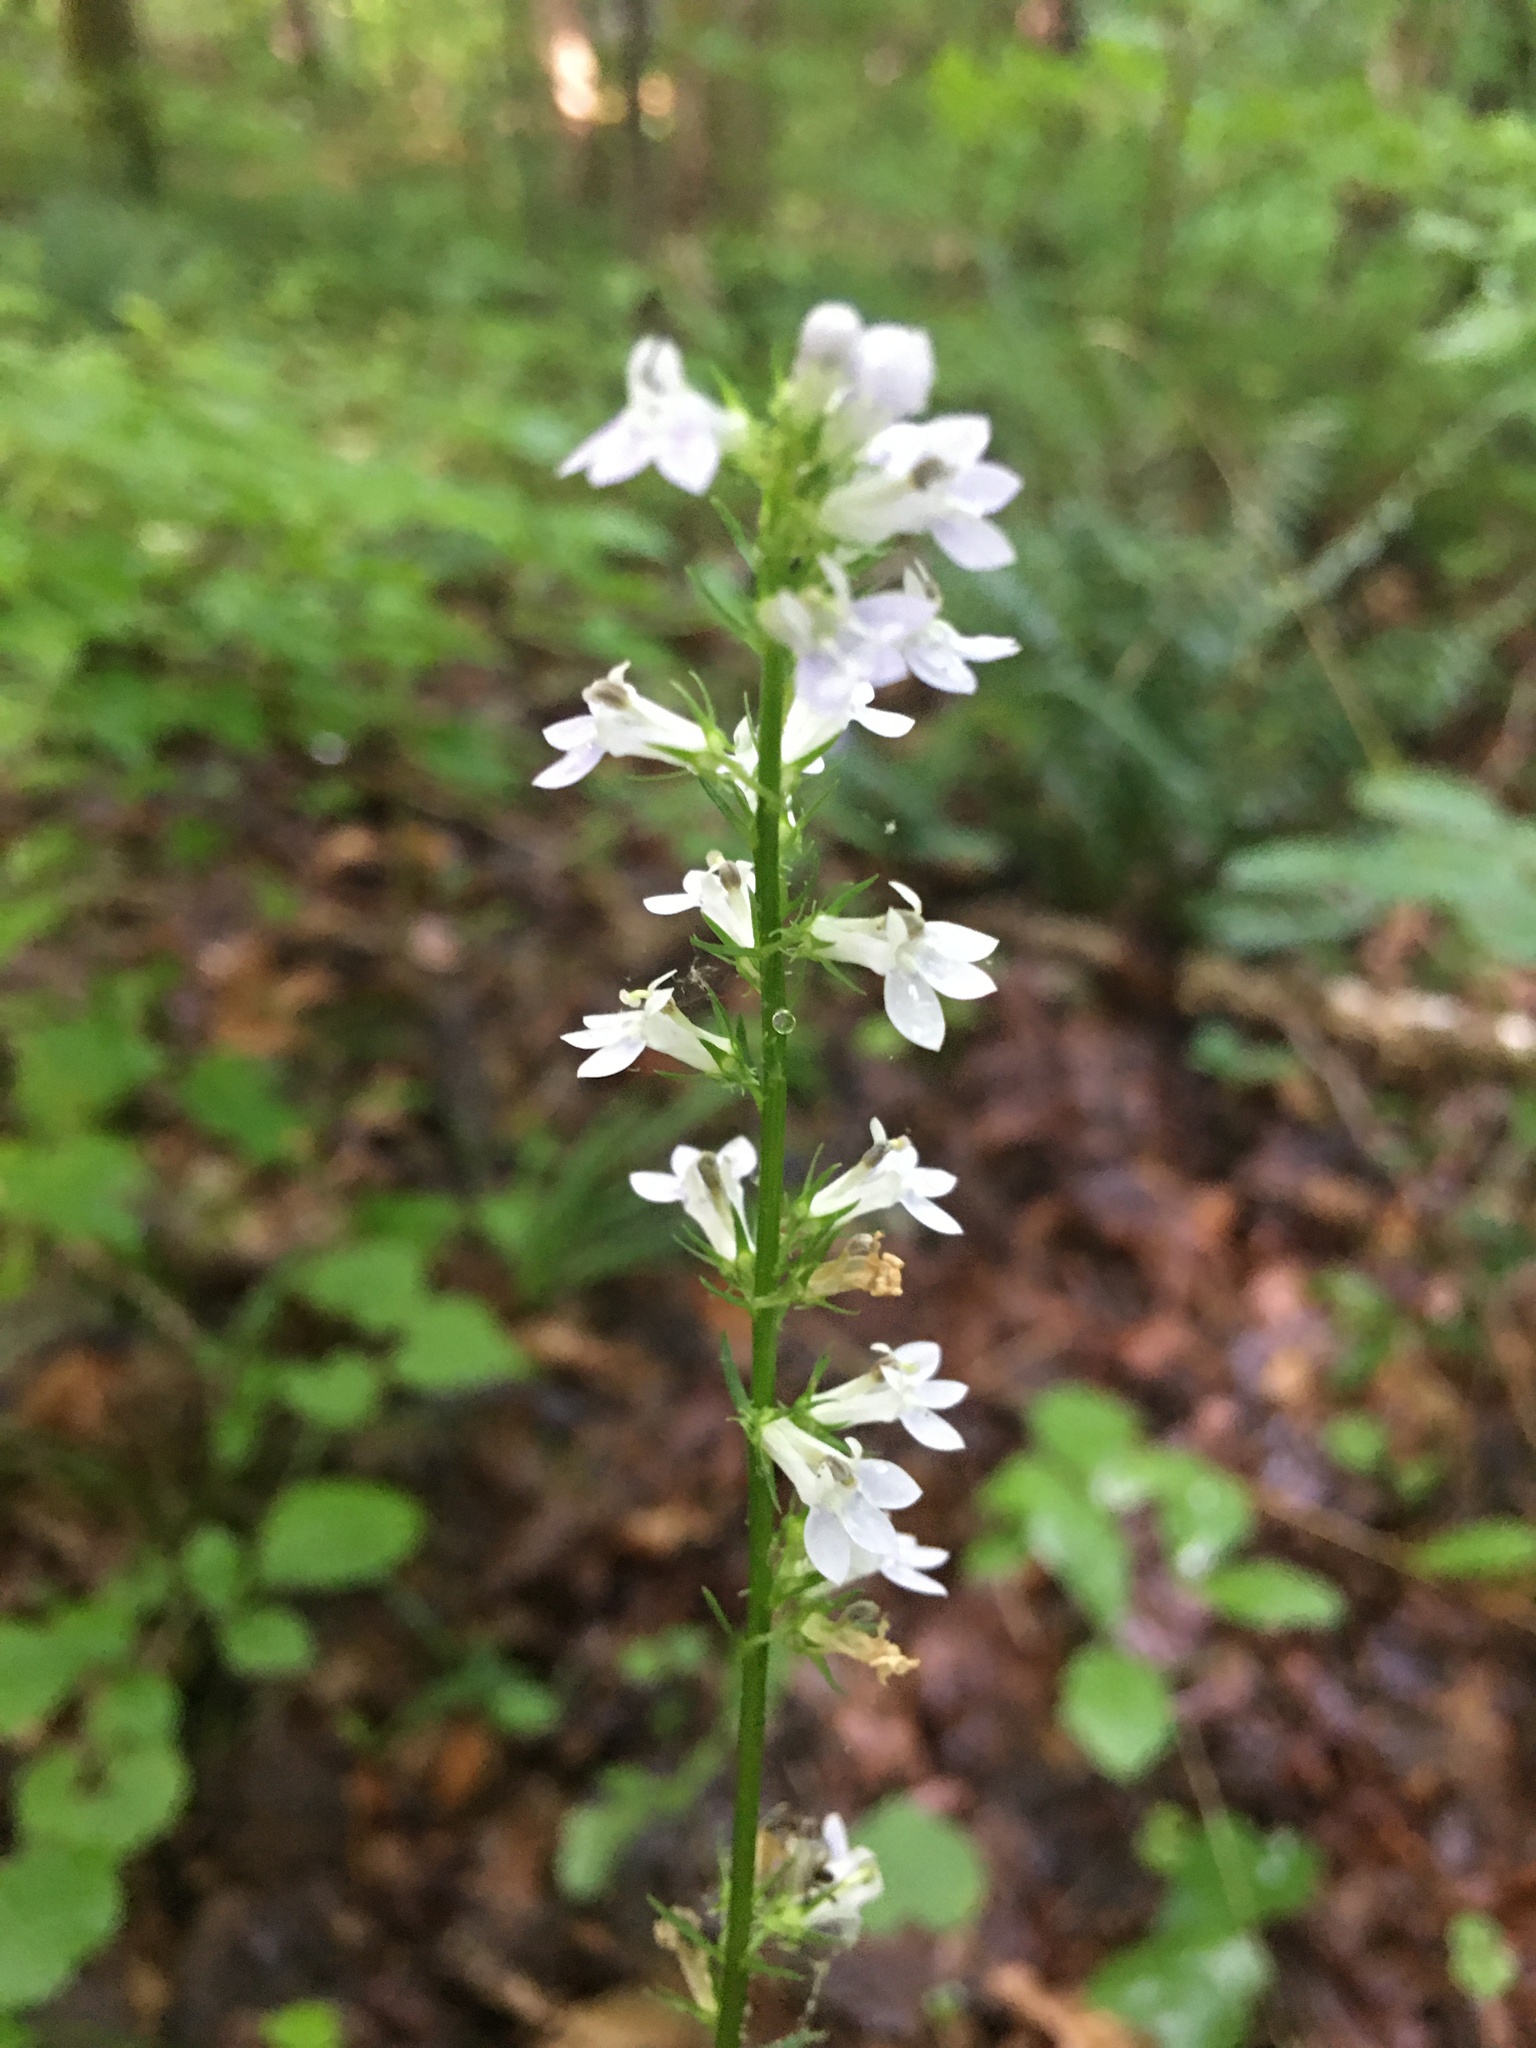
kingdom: Plantae
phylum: Tracheophyta
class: Magnoliopsida
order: Asterales
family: Campanulaceae
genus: Lobelia
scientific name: Lobelia spicata
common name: Pale-spike lobelia
